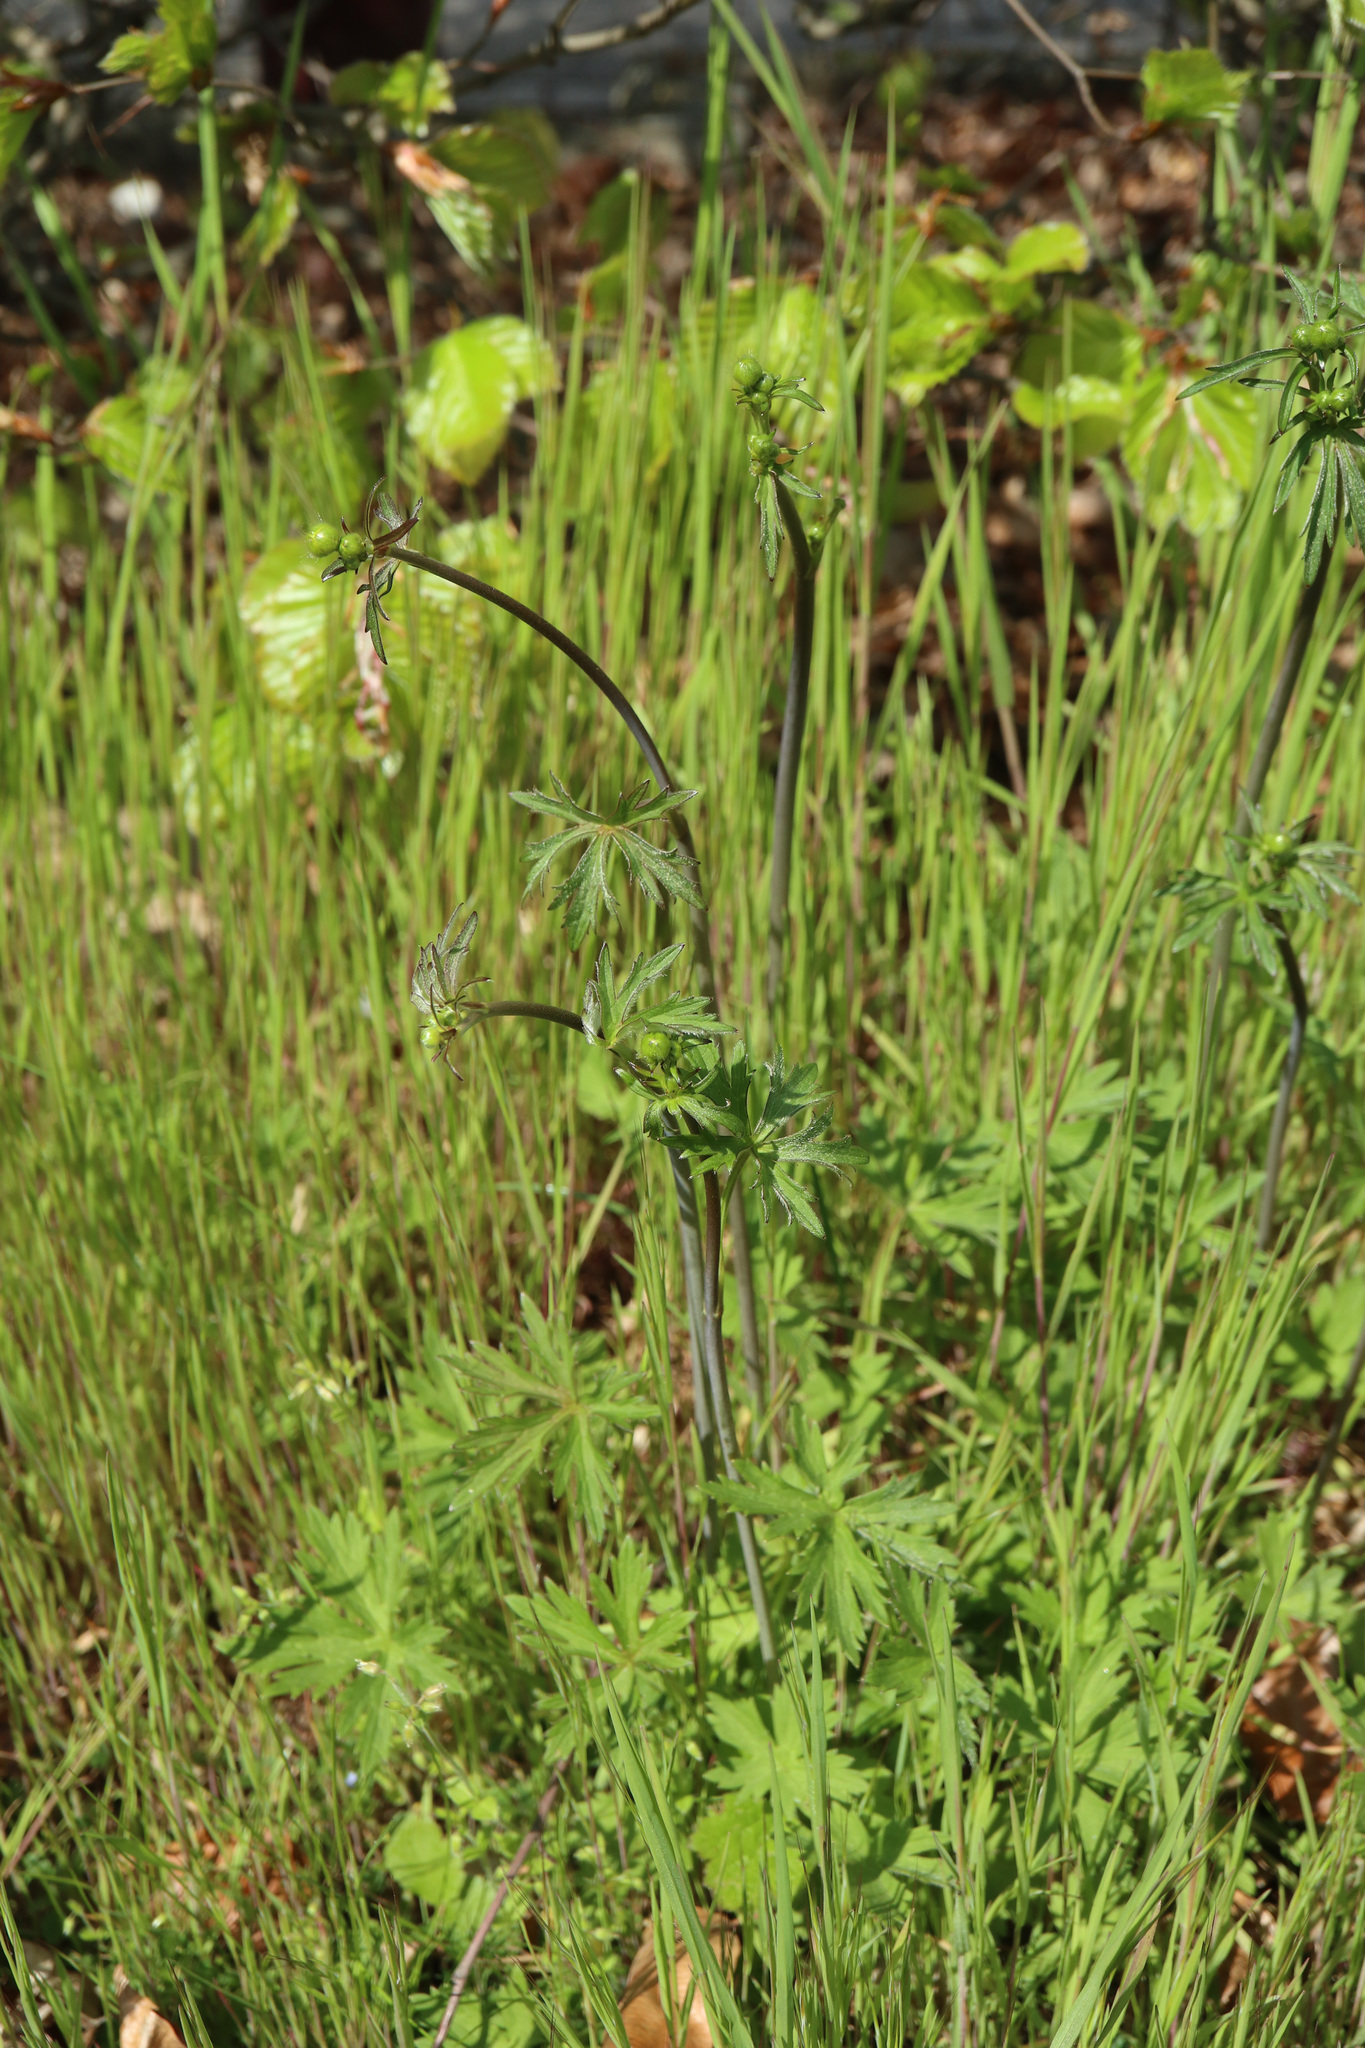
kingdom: Plantae
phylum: Tracheophyta
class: Magnoliopsida
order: Ranunculales
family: Ranunculaceae
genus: Ranunculus
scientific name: Ranunculus acris
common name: Meadow buttercup
